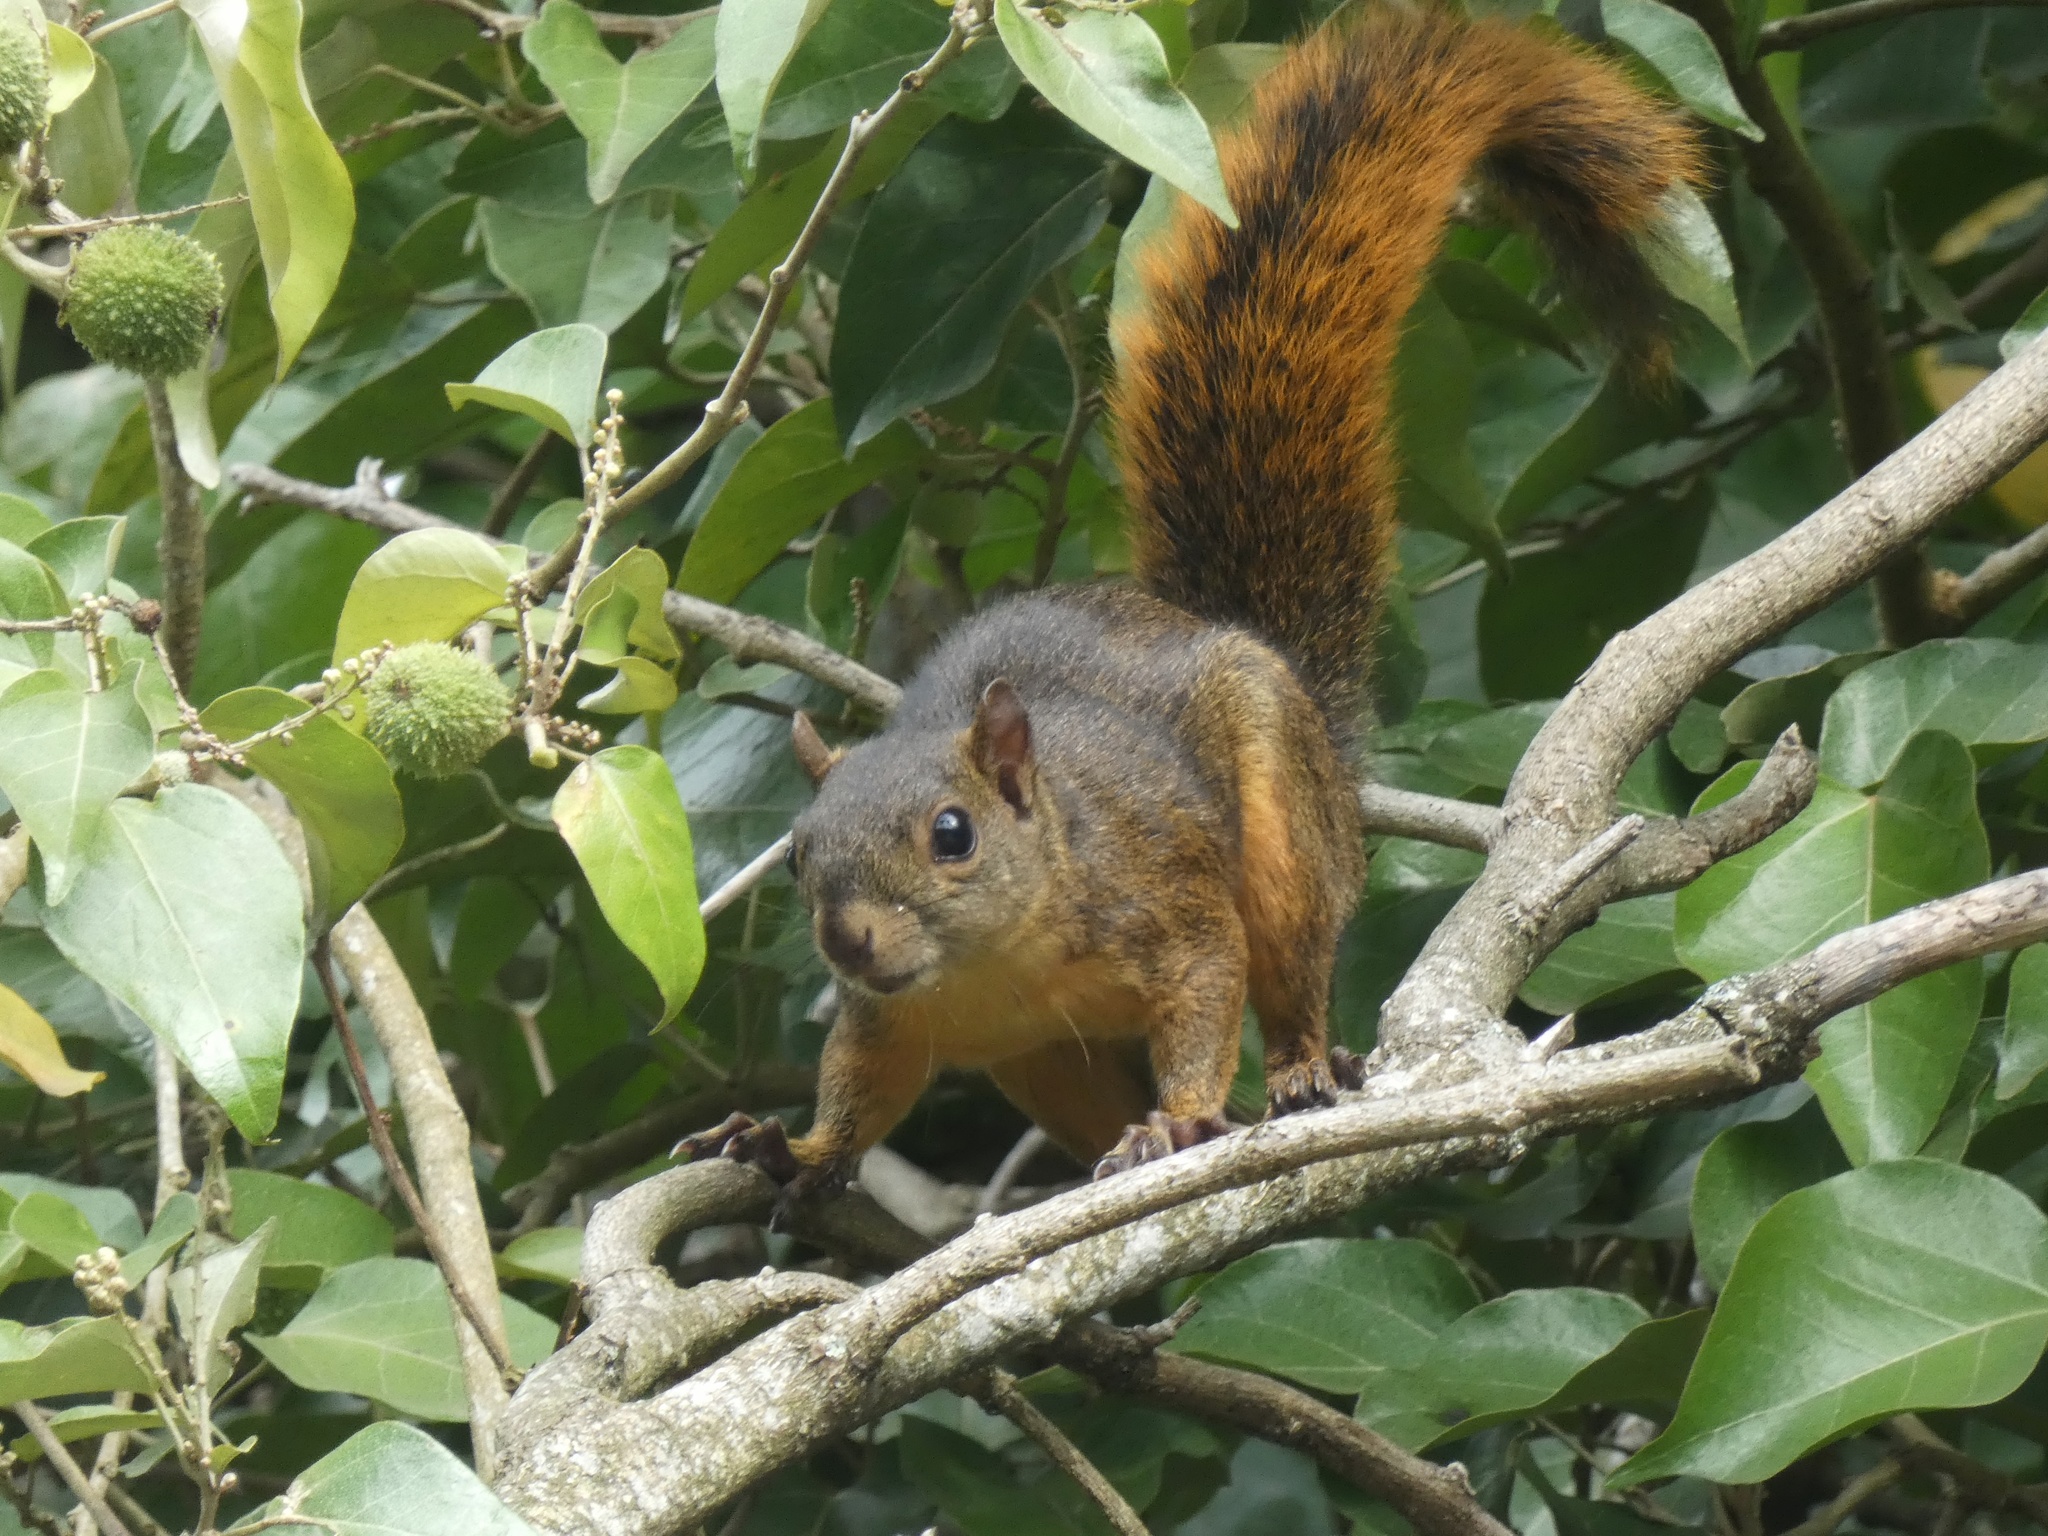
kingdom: Animalia
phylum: Chordata
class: Mammalia
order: Rodentia
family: Sciuridae
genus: Sciurus
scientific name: Sciurus granatensis
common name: Red-tailed squirrel
